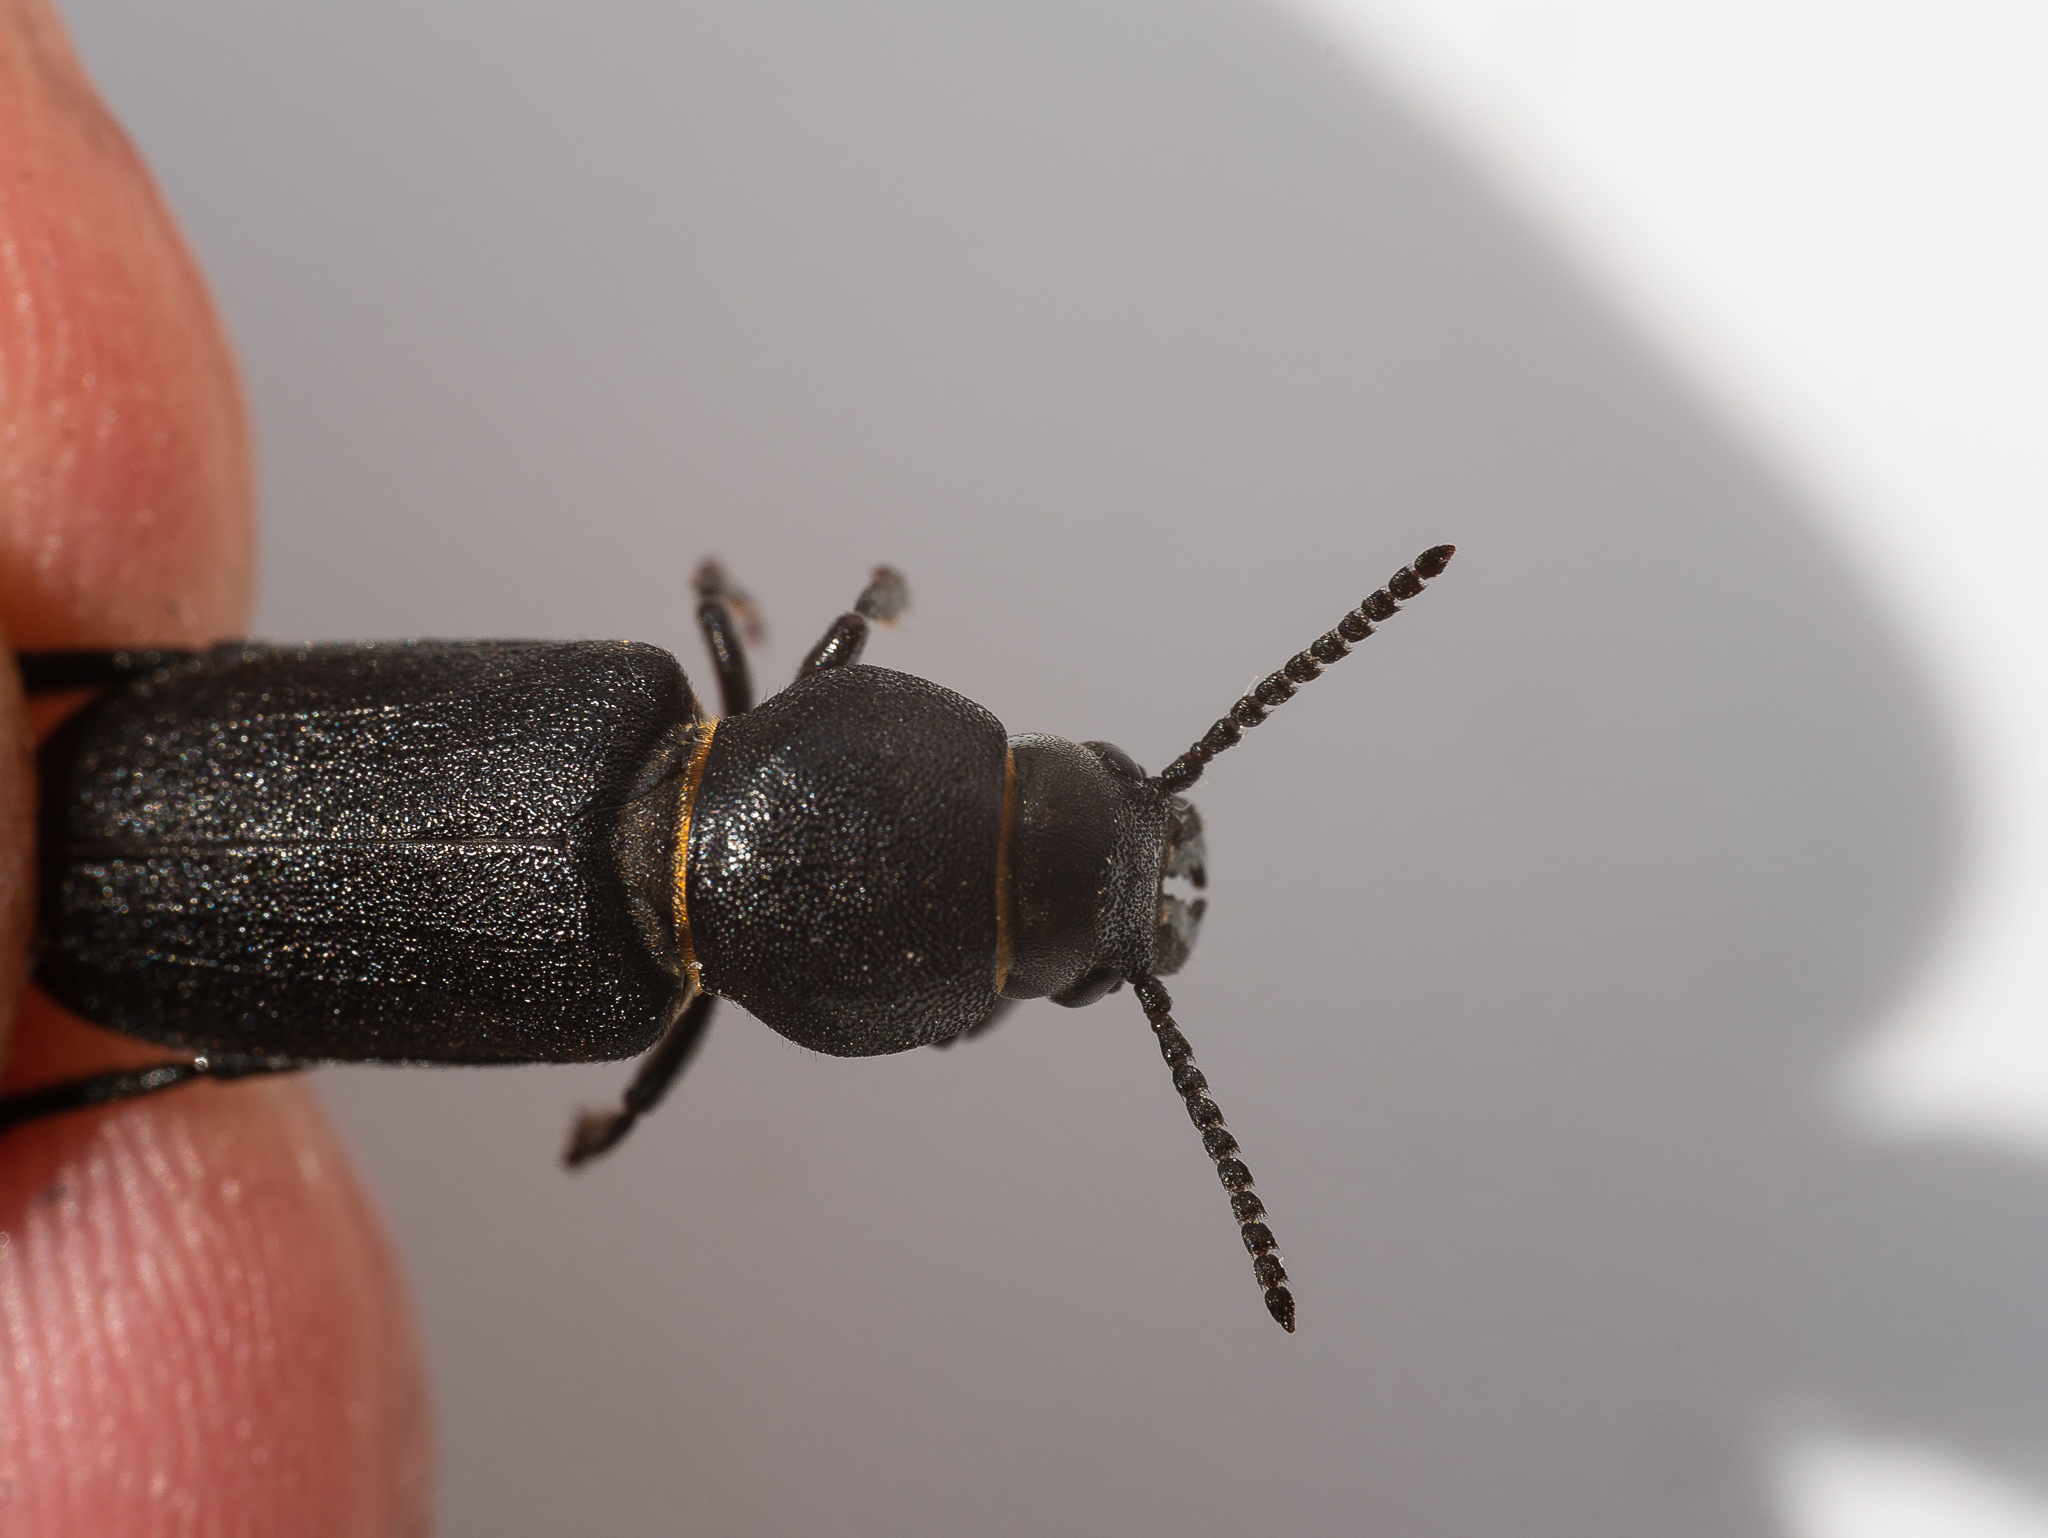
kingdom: Animalia
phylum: Arthropoda
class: Insecta
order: Coleoptera
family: Cerambycidae
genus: Spondylis
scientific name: Spondylis buprestoides
